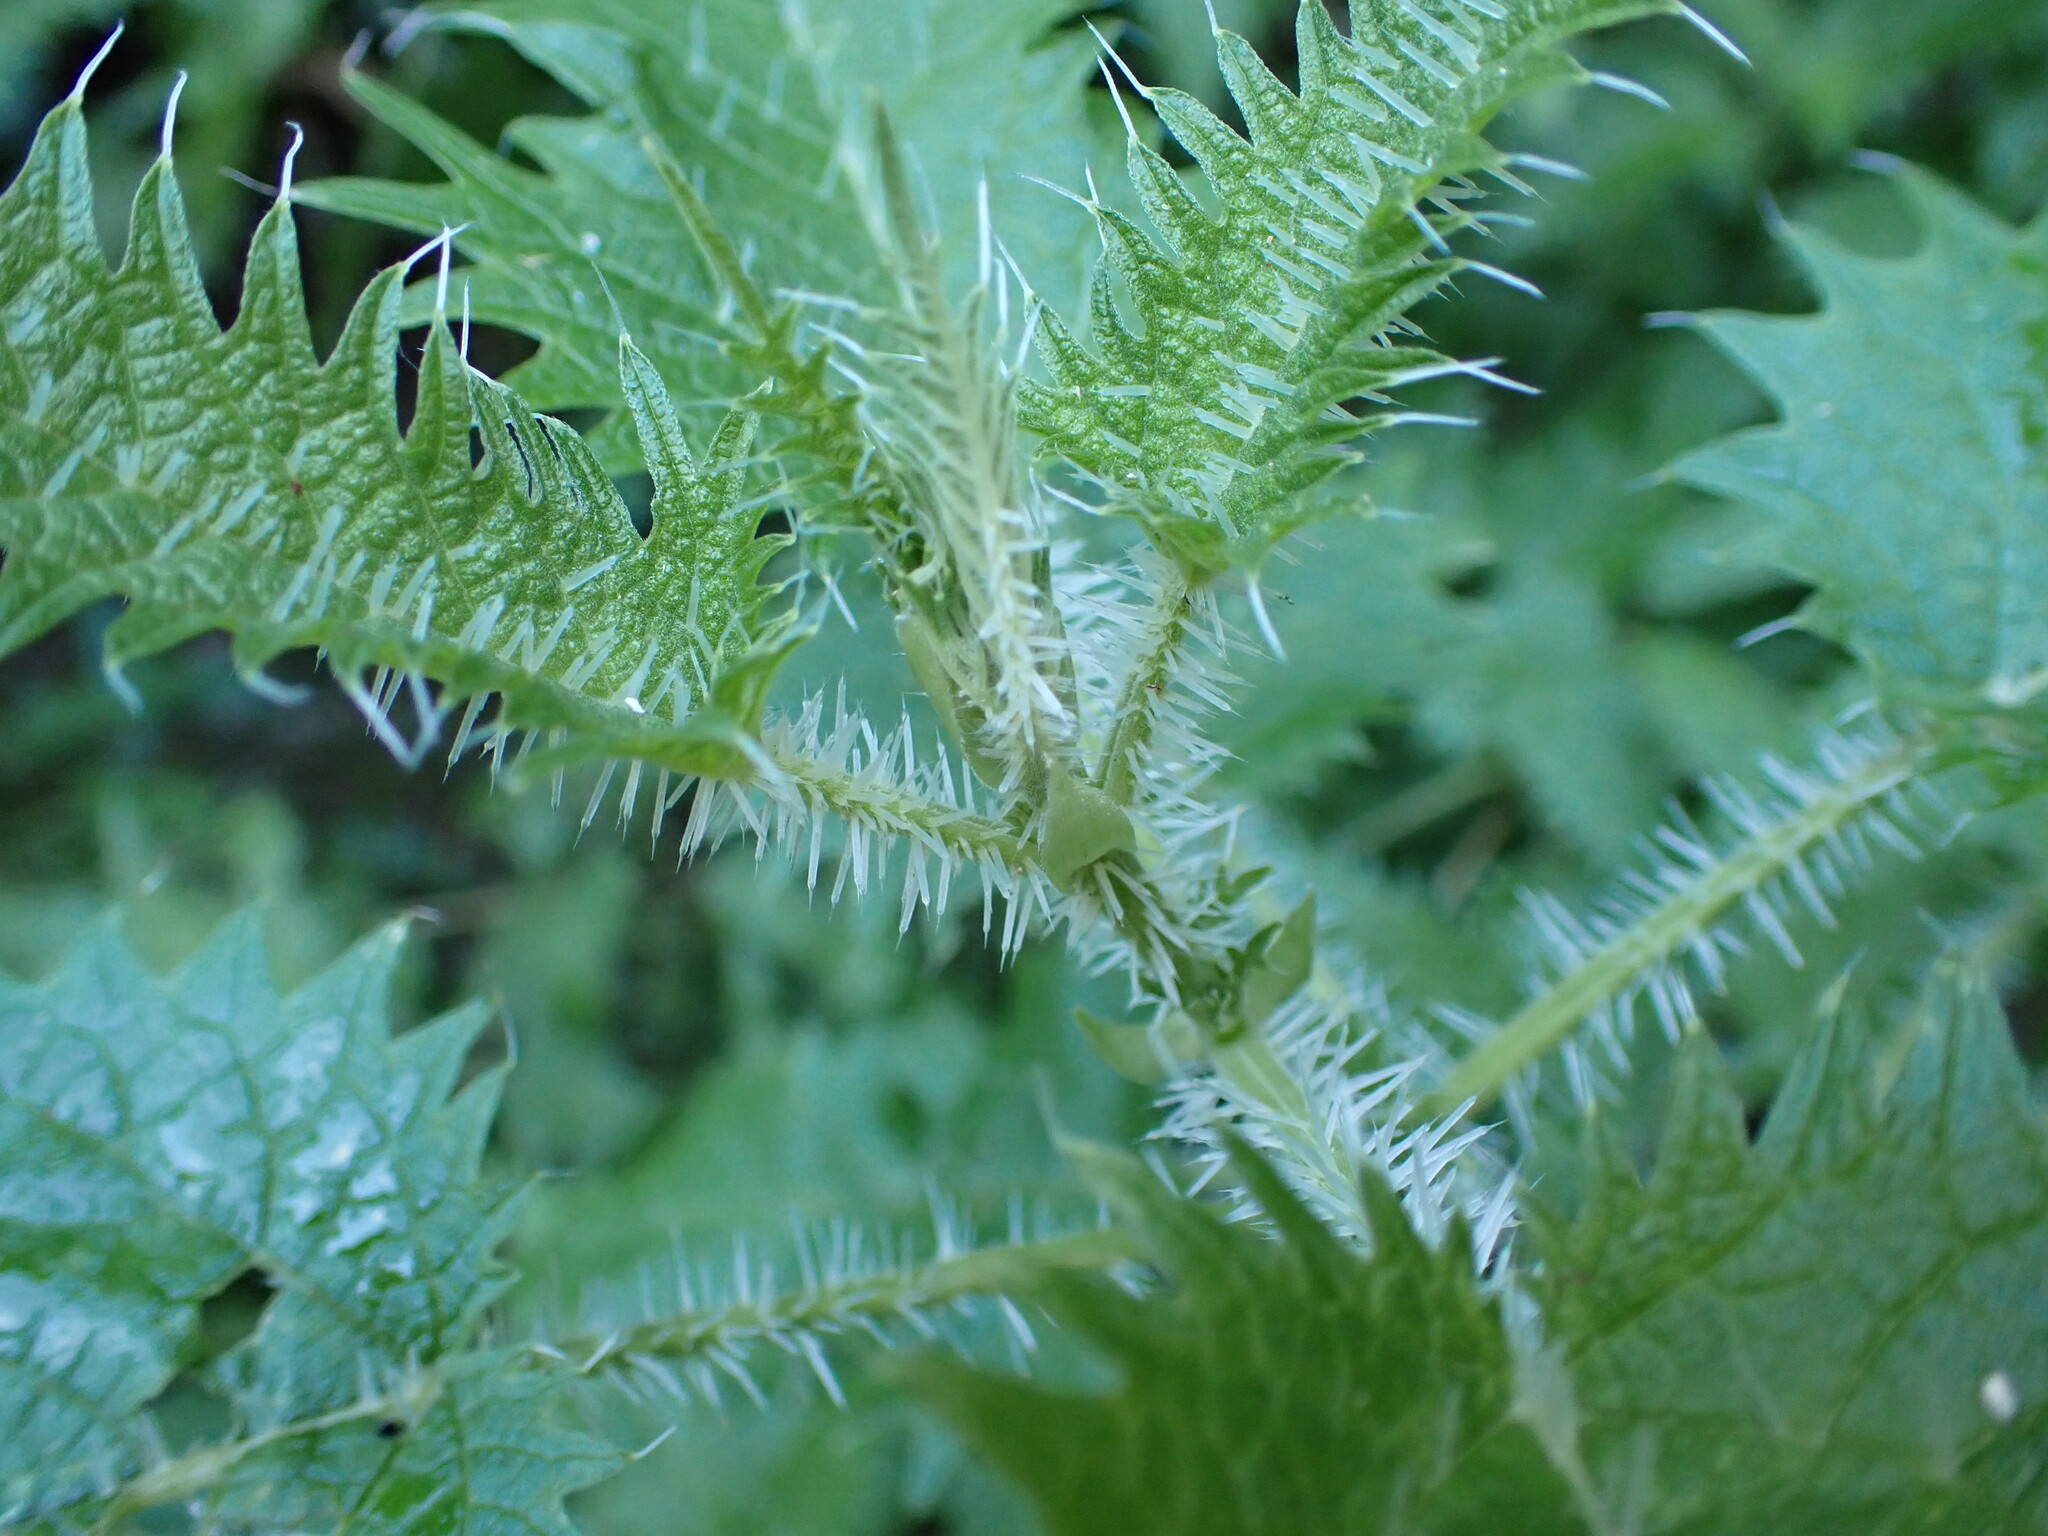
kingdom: Plantae
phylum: Tracheophyta
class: Magnoliopsida
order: Rosales
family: Urticaceae
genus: Urtica
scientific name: Urtica ferox
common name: Tree nettle
